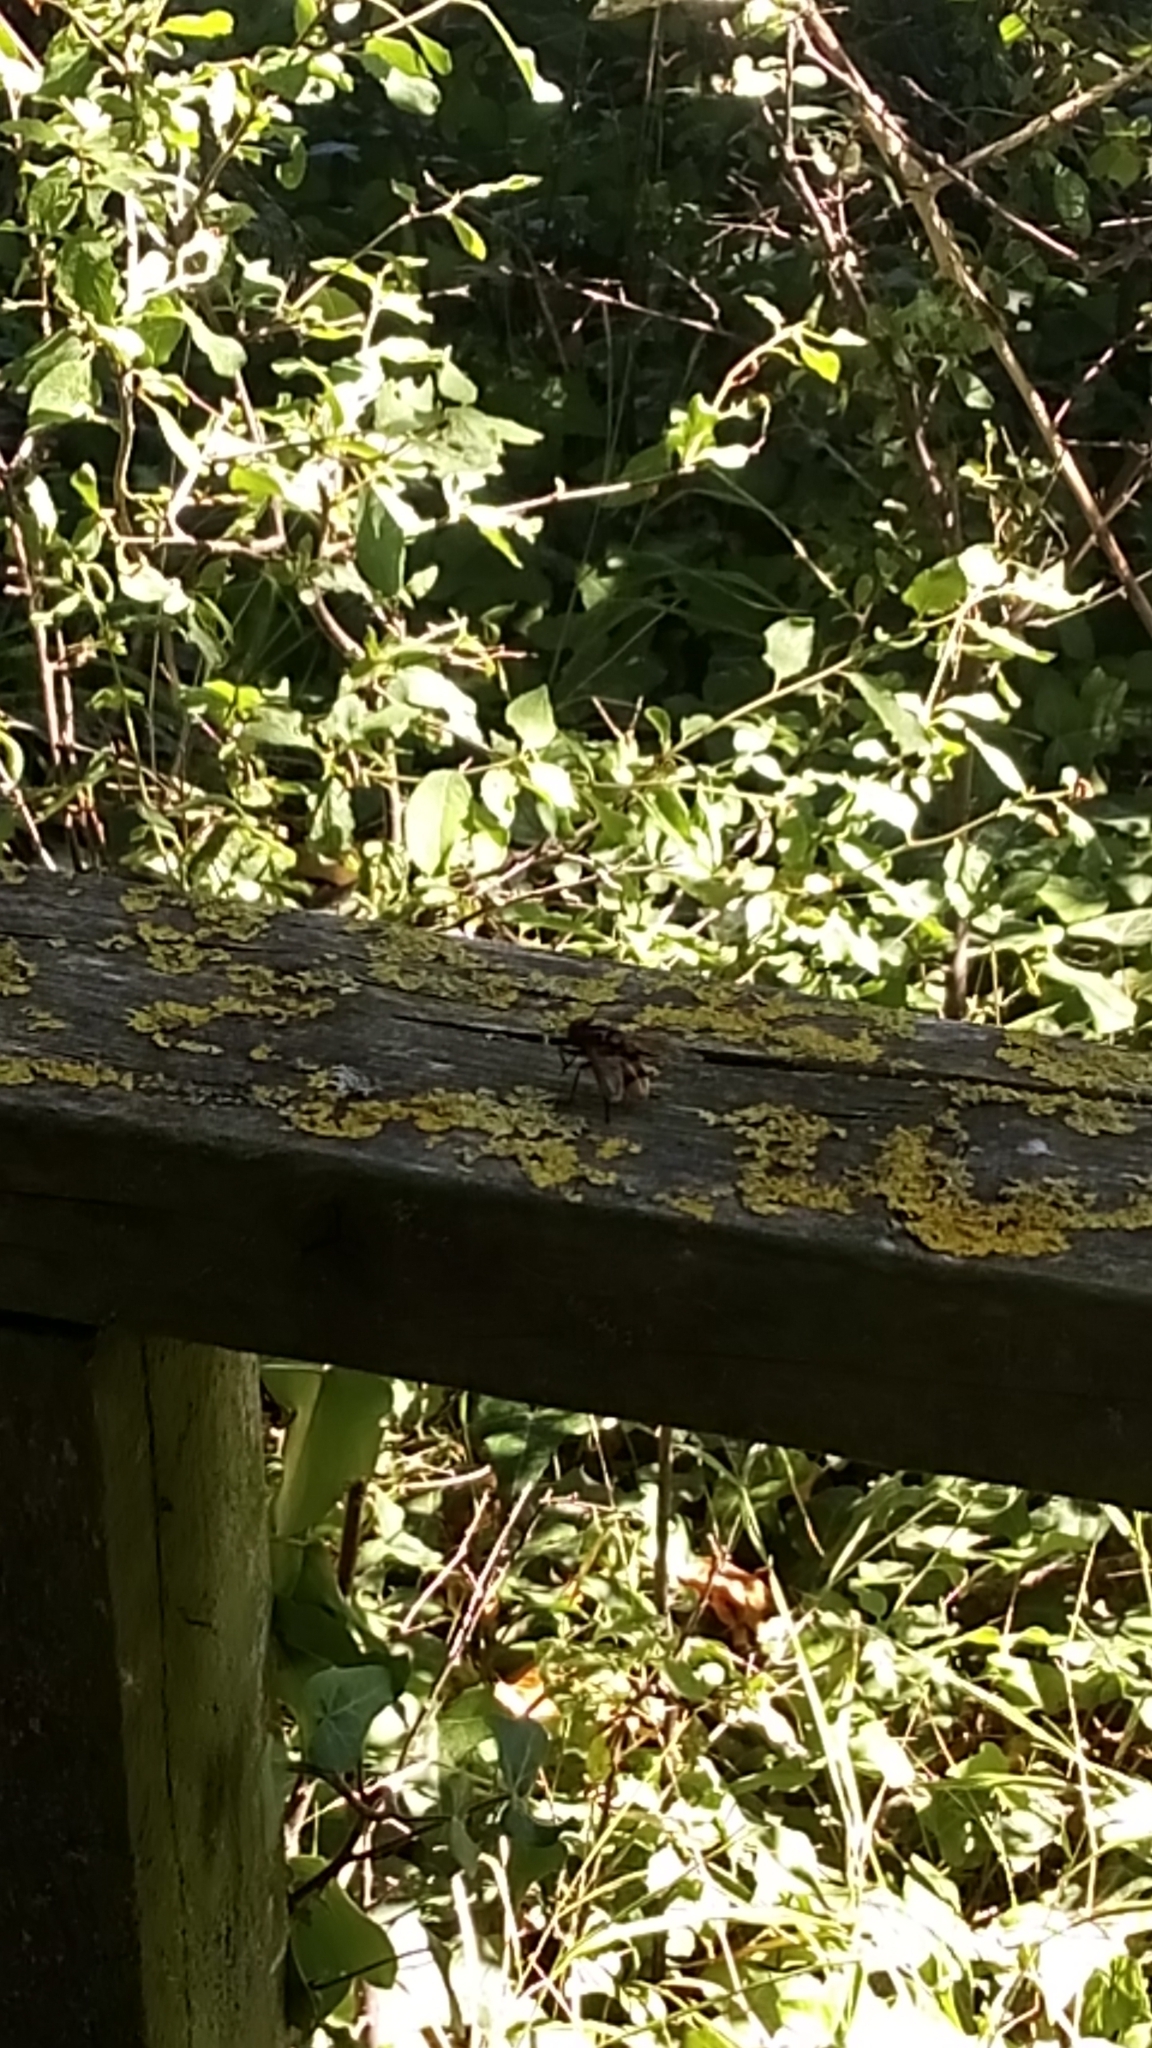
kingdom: Animalia
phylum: Arthropoda
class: Insecta
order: Diptera
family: Syrphidae
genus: Volucella
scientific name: Volucella zonaria
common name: Hornet hoverfly
